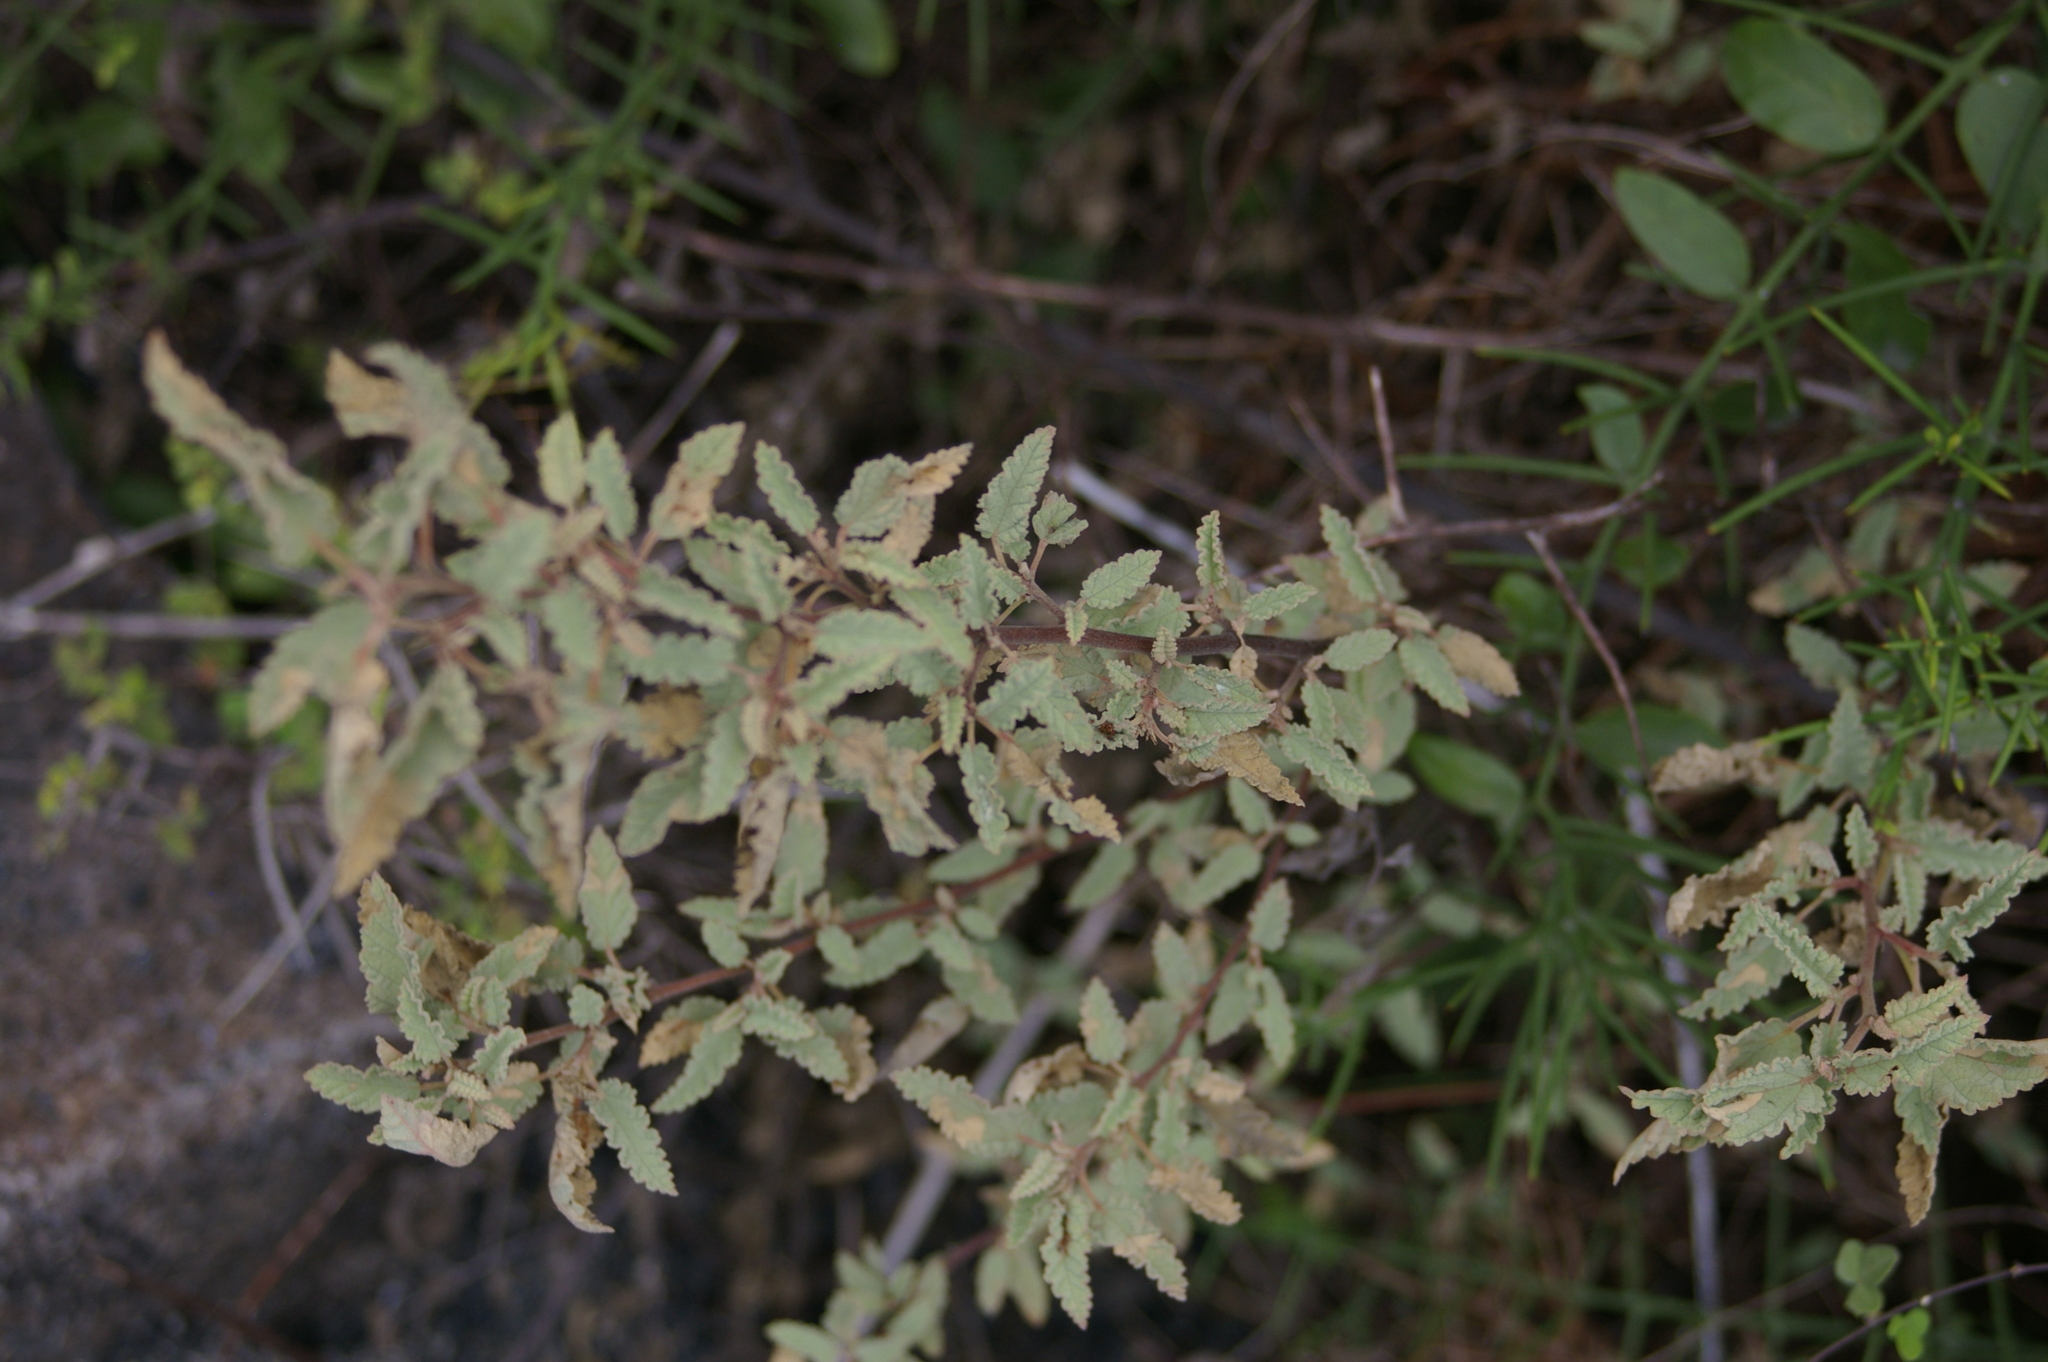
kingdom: Plantae
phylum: Tracheophyta
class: Magnoliopsida
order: Malvales
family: Malvaceae
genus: Waltheria
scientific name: Waltheria ovata
